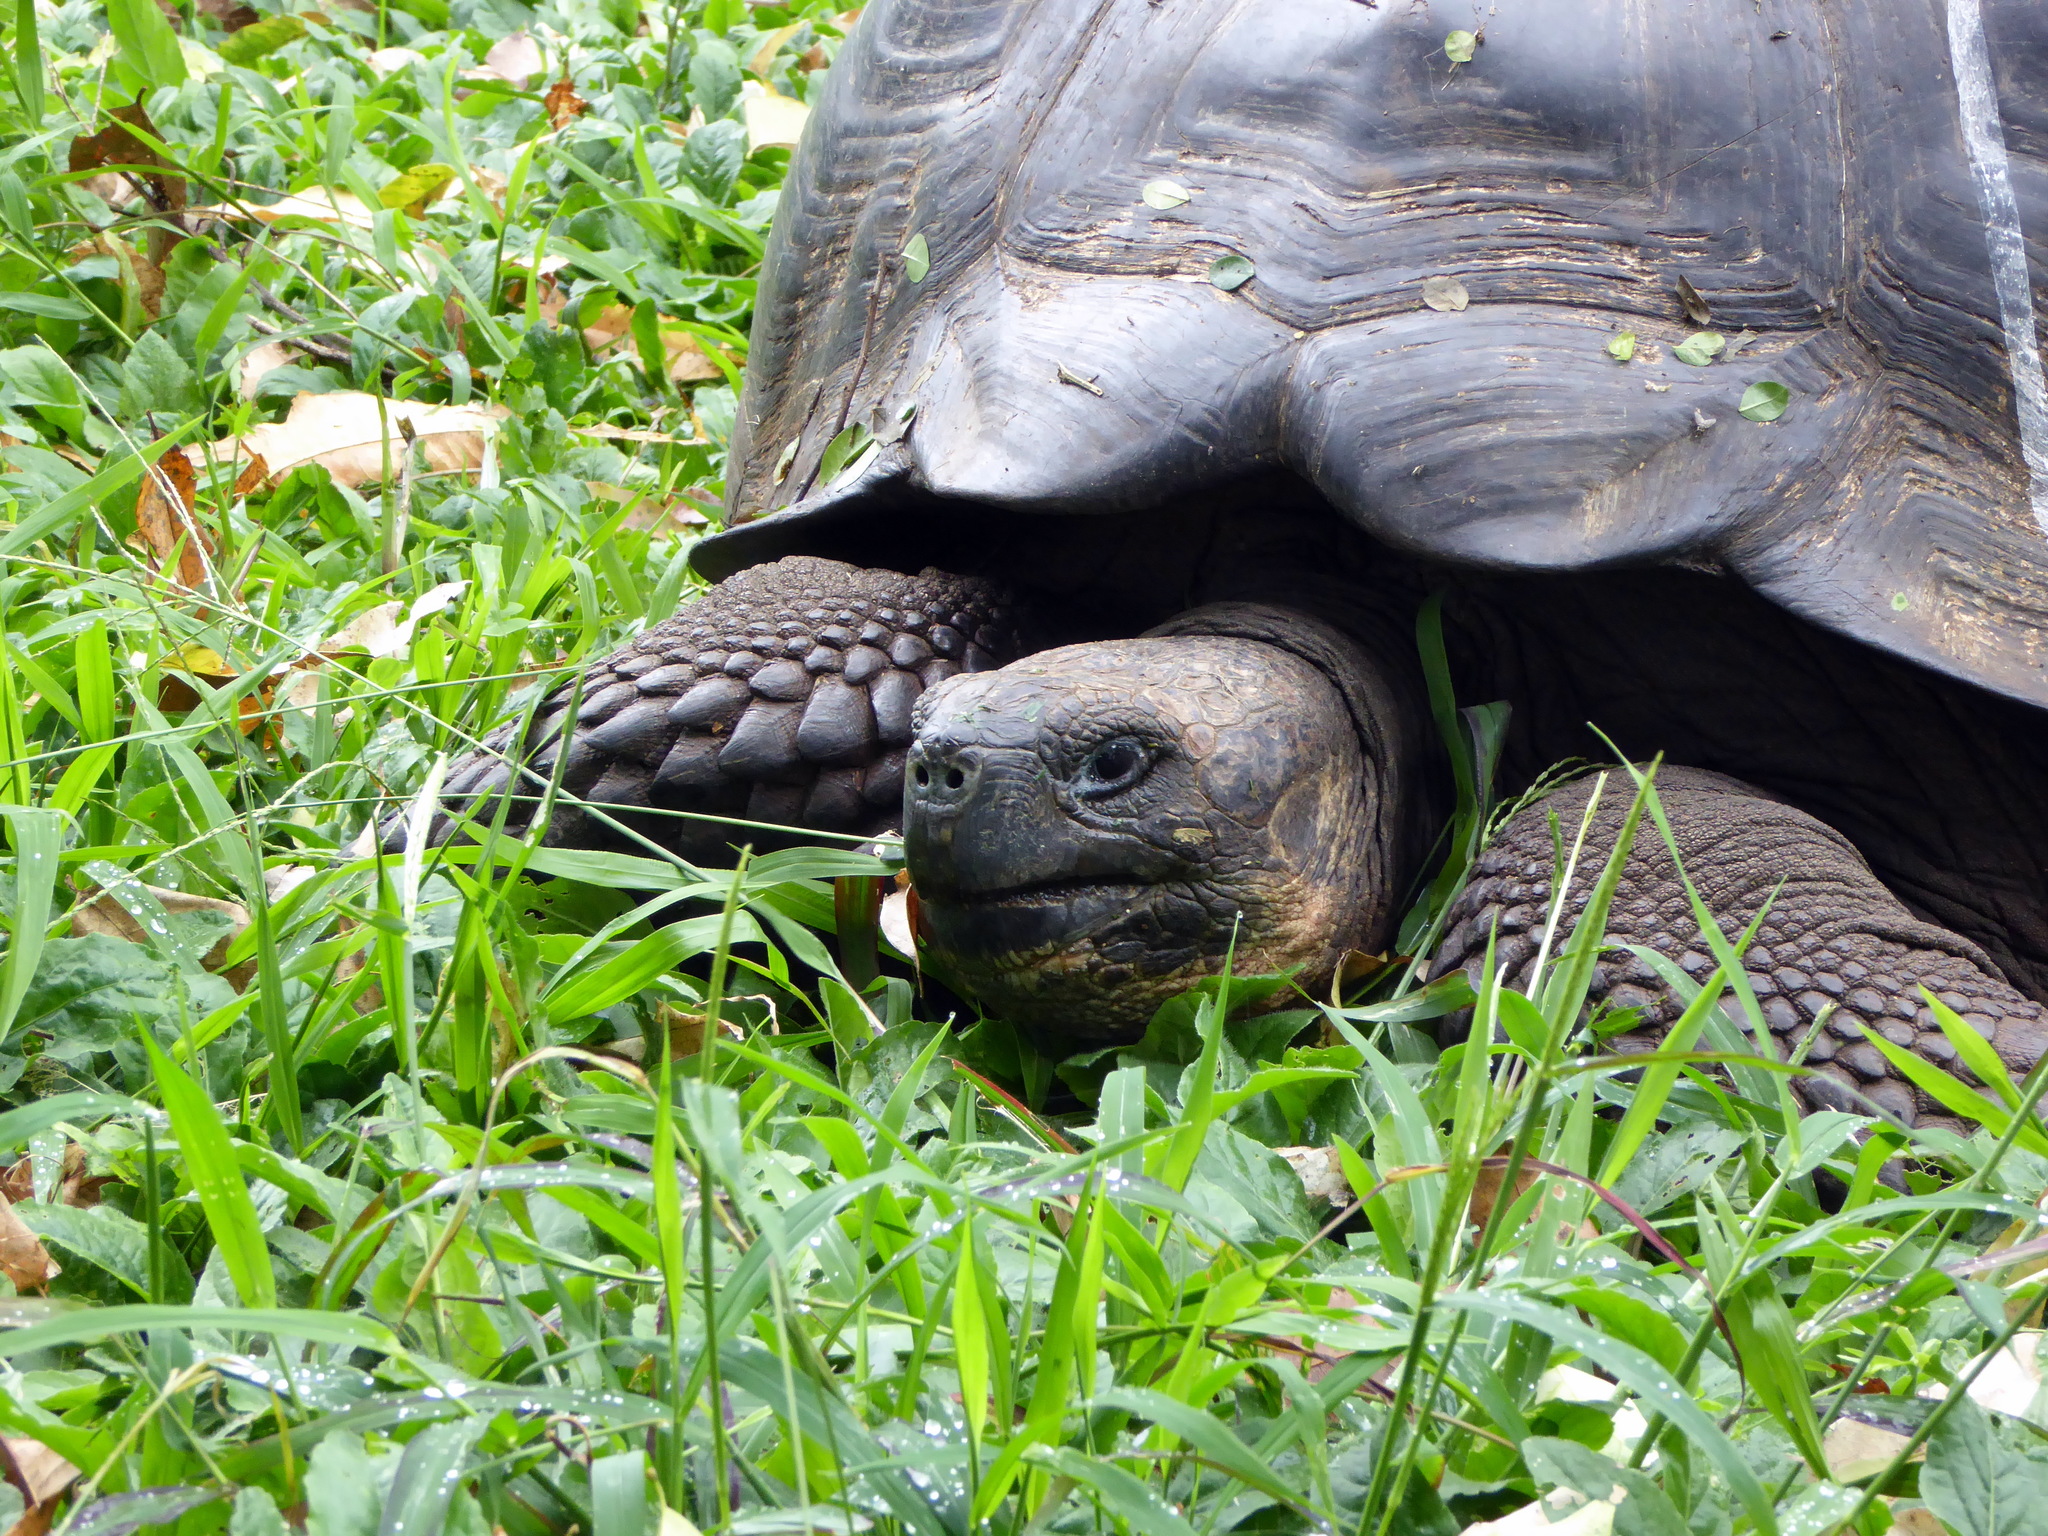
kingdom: Animalia
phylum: Chordata
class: Testudines
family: Testudinidae
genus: Chelonoidis
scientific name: Chelonoidis porteri
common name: Indefatigable island giant tortoise
